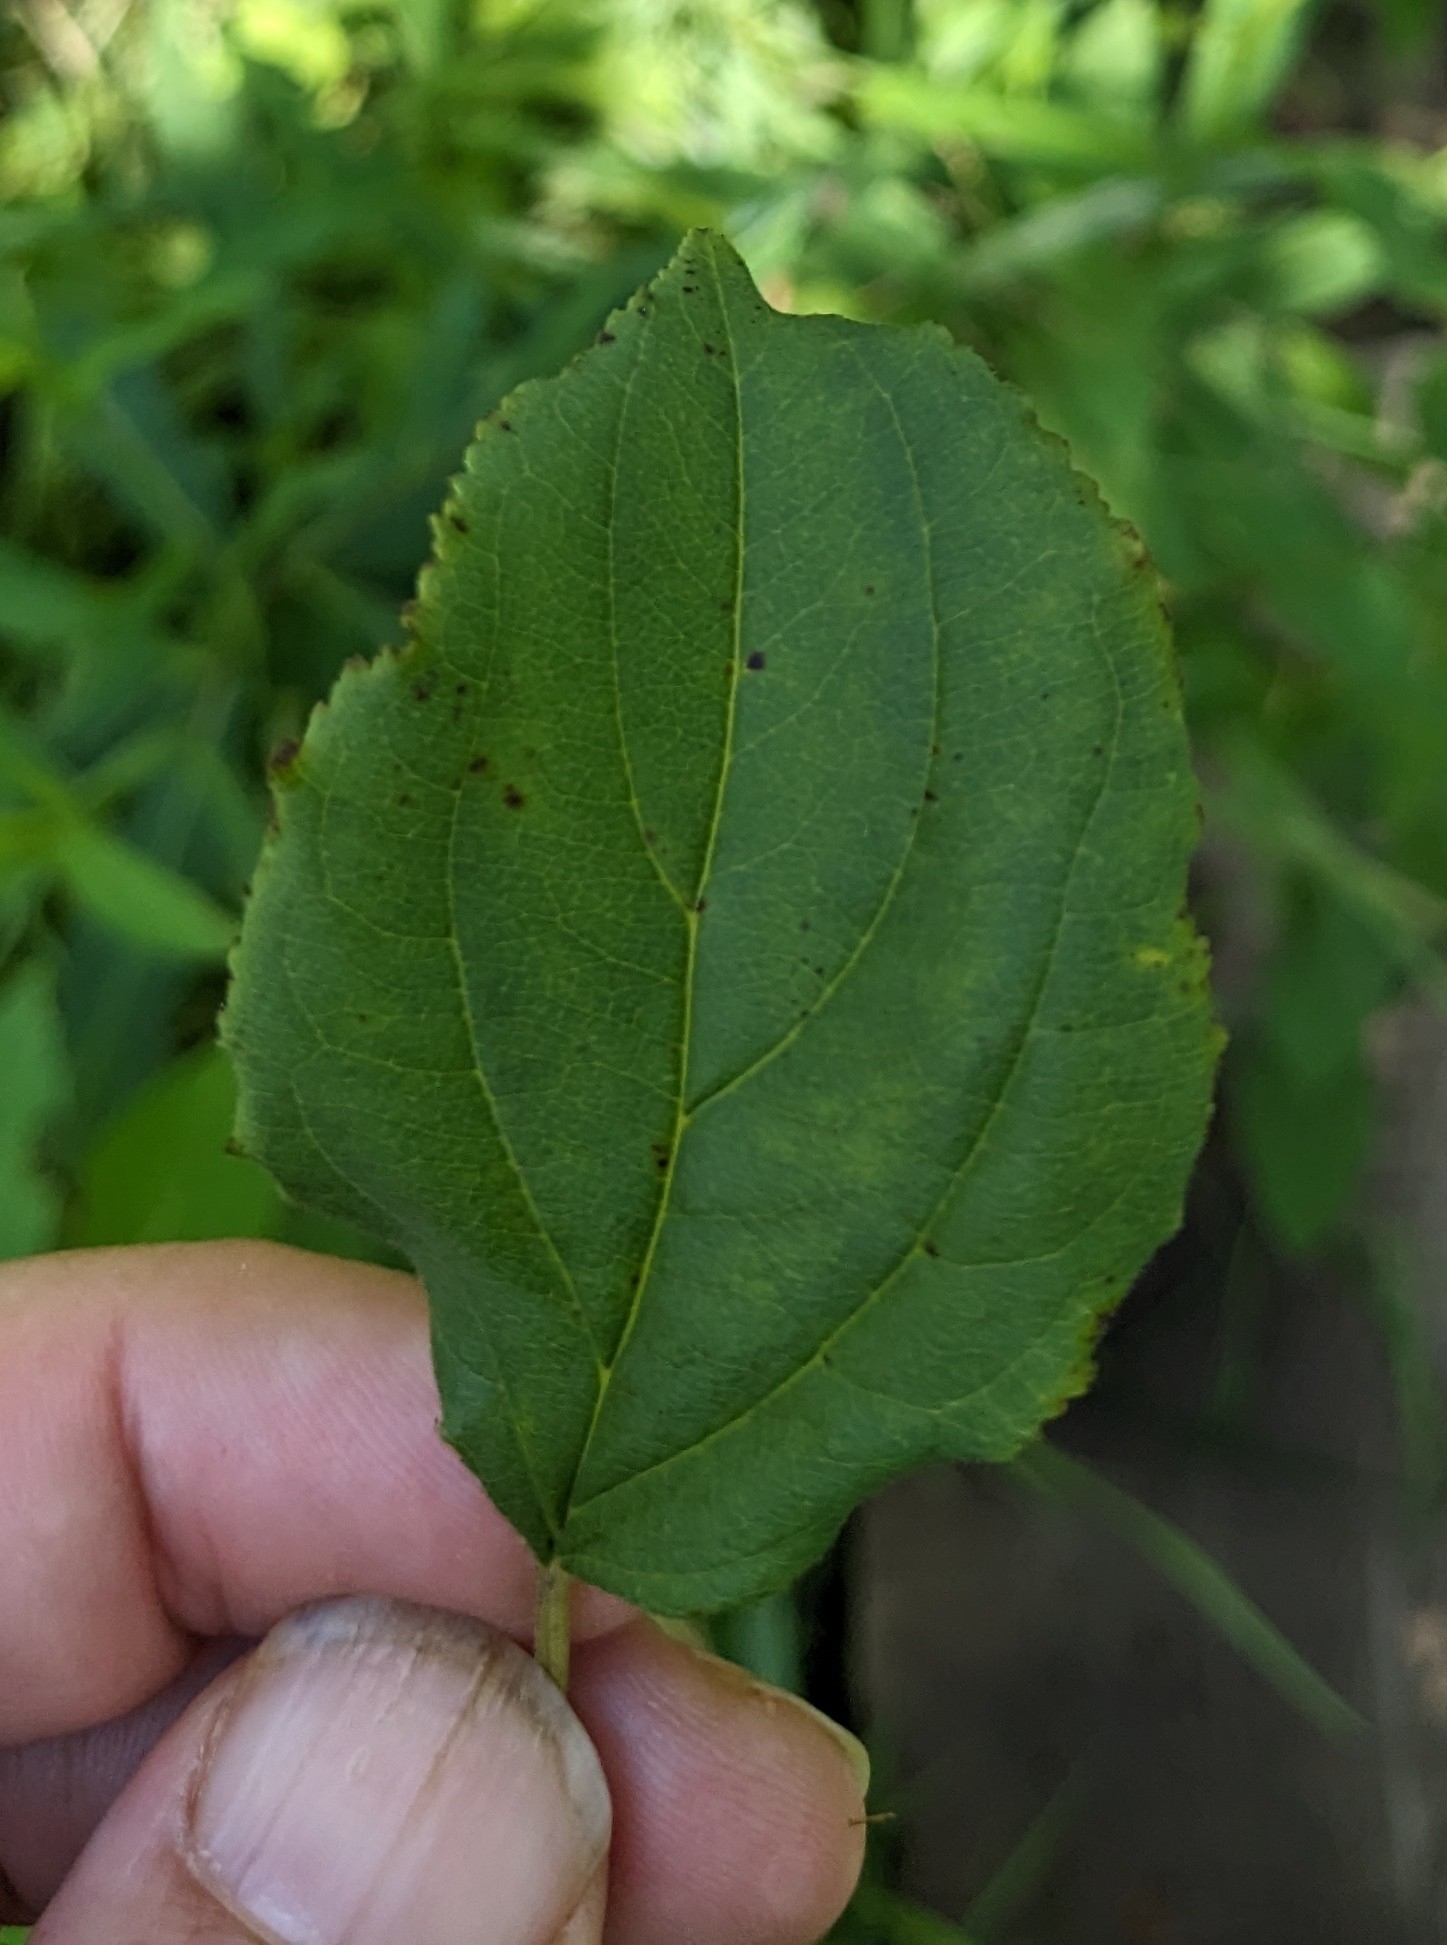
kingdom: Plantae
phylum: Tracheophyta
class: Magnoliopsida
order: Rosales
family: Rhamnaceae
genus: Rhamnus
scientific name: Rhamnus cathartica
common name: Common buckthorn
